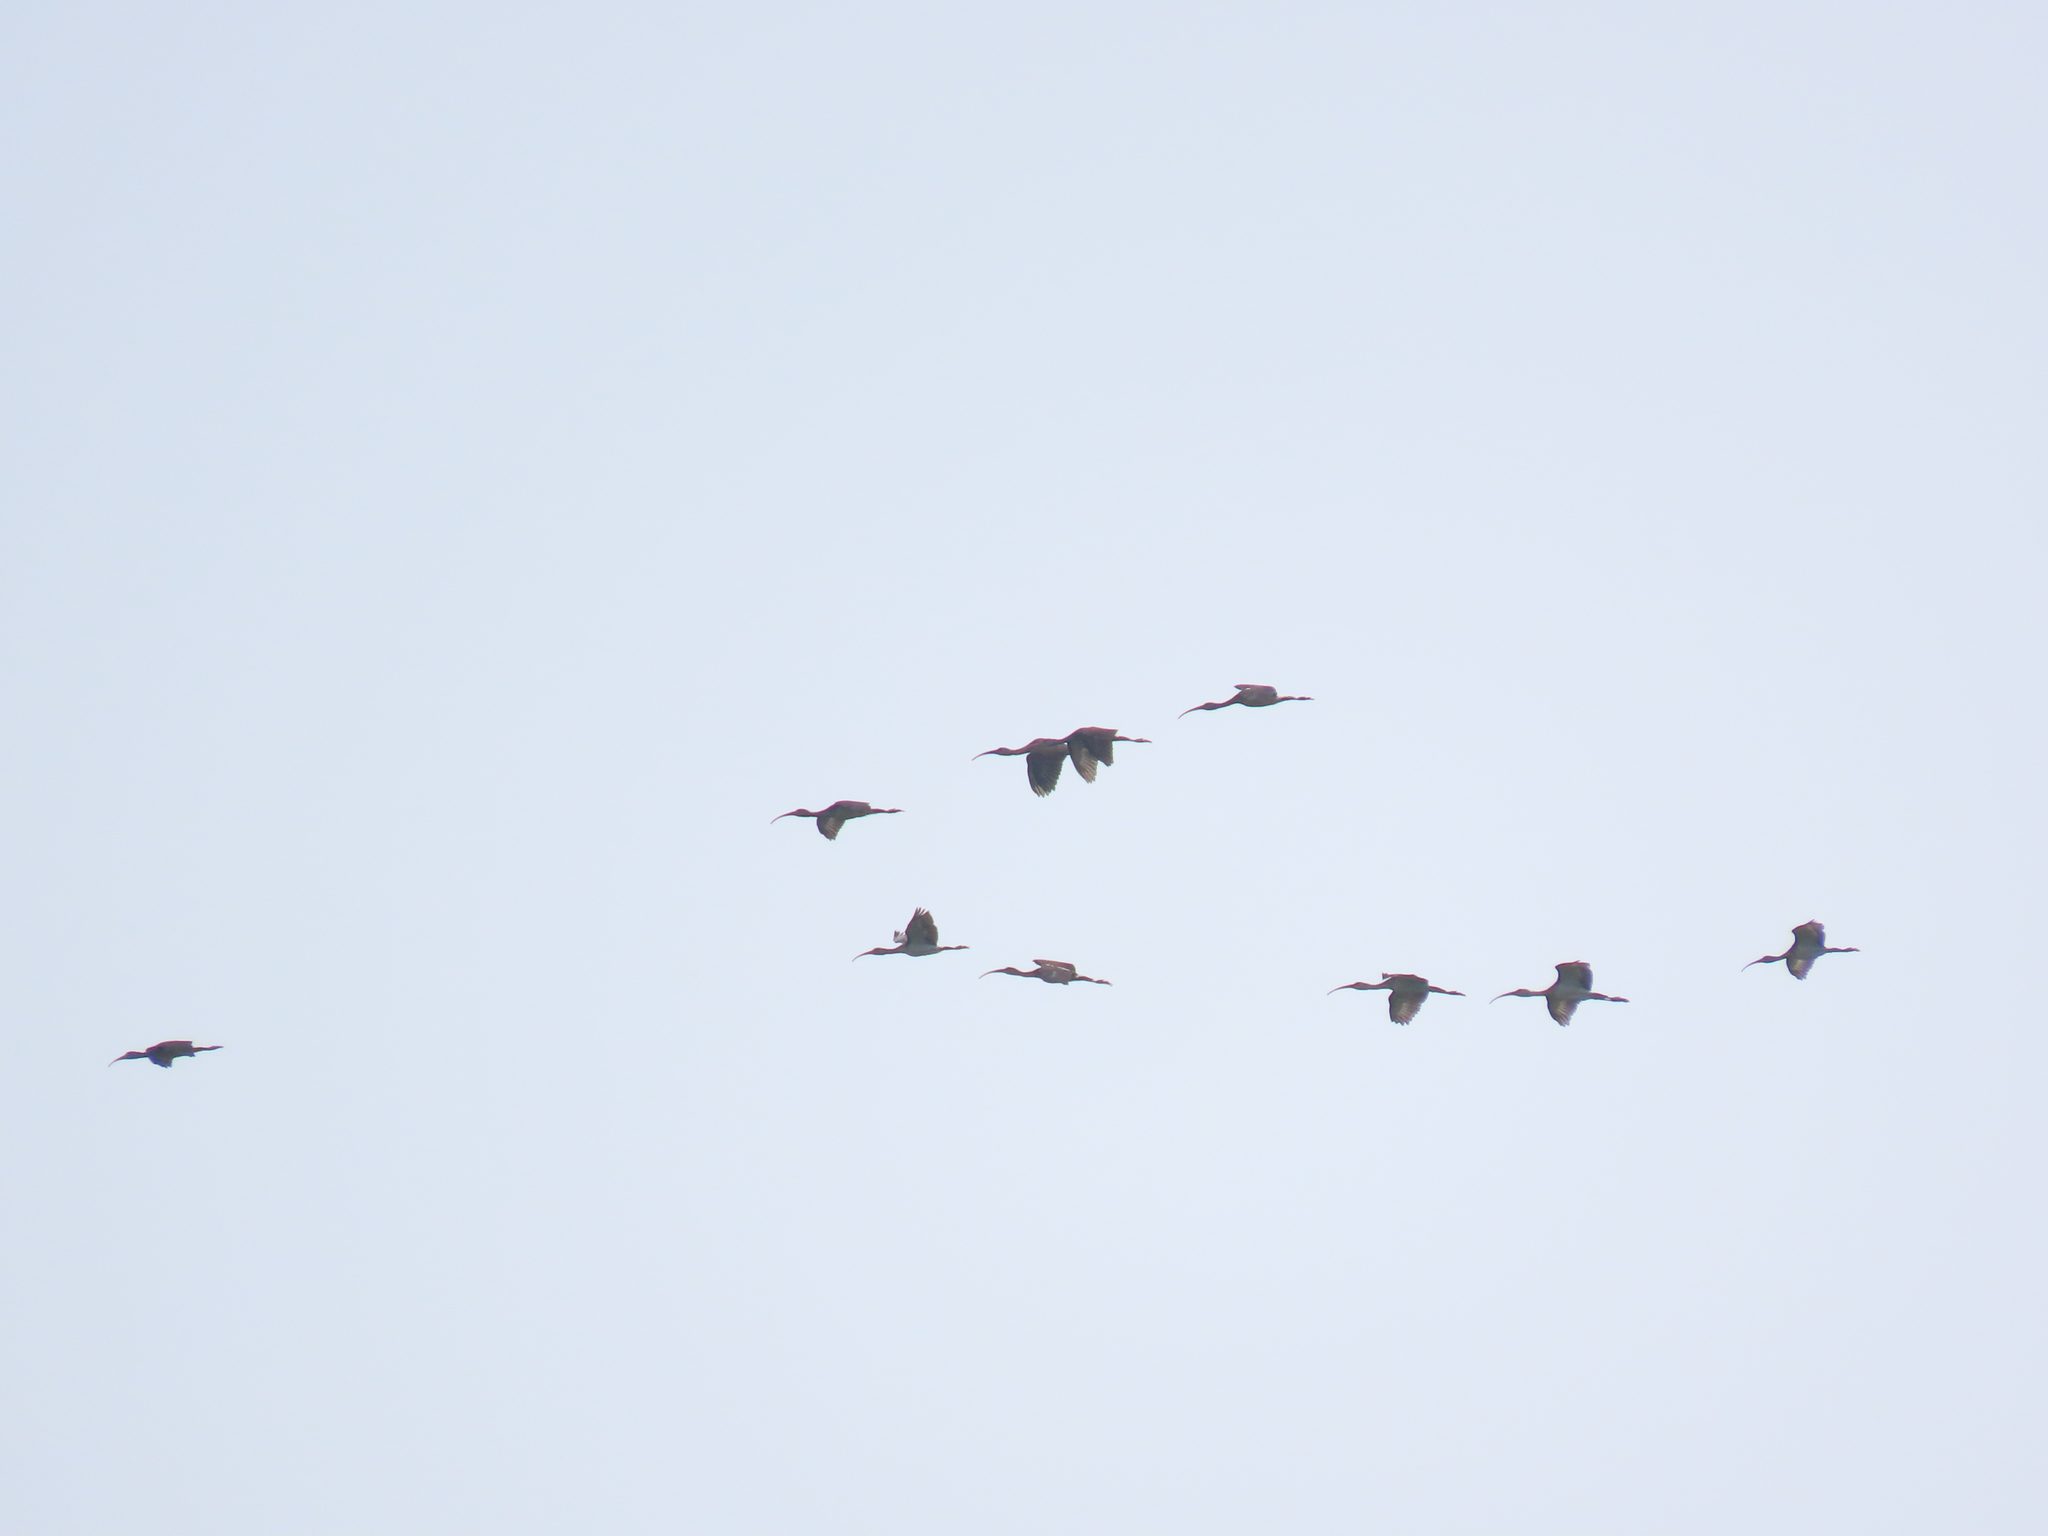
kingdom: Animalia
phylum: Chordata
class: Aves
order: Pelecaniformes
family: Threskiornithidae
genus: Eudocimus
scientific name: Eudocimus albus
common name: White ibis
